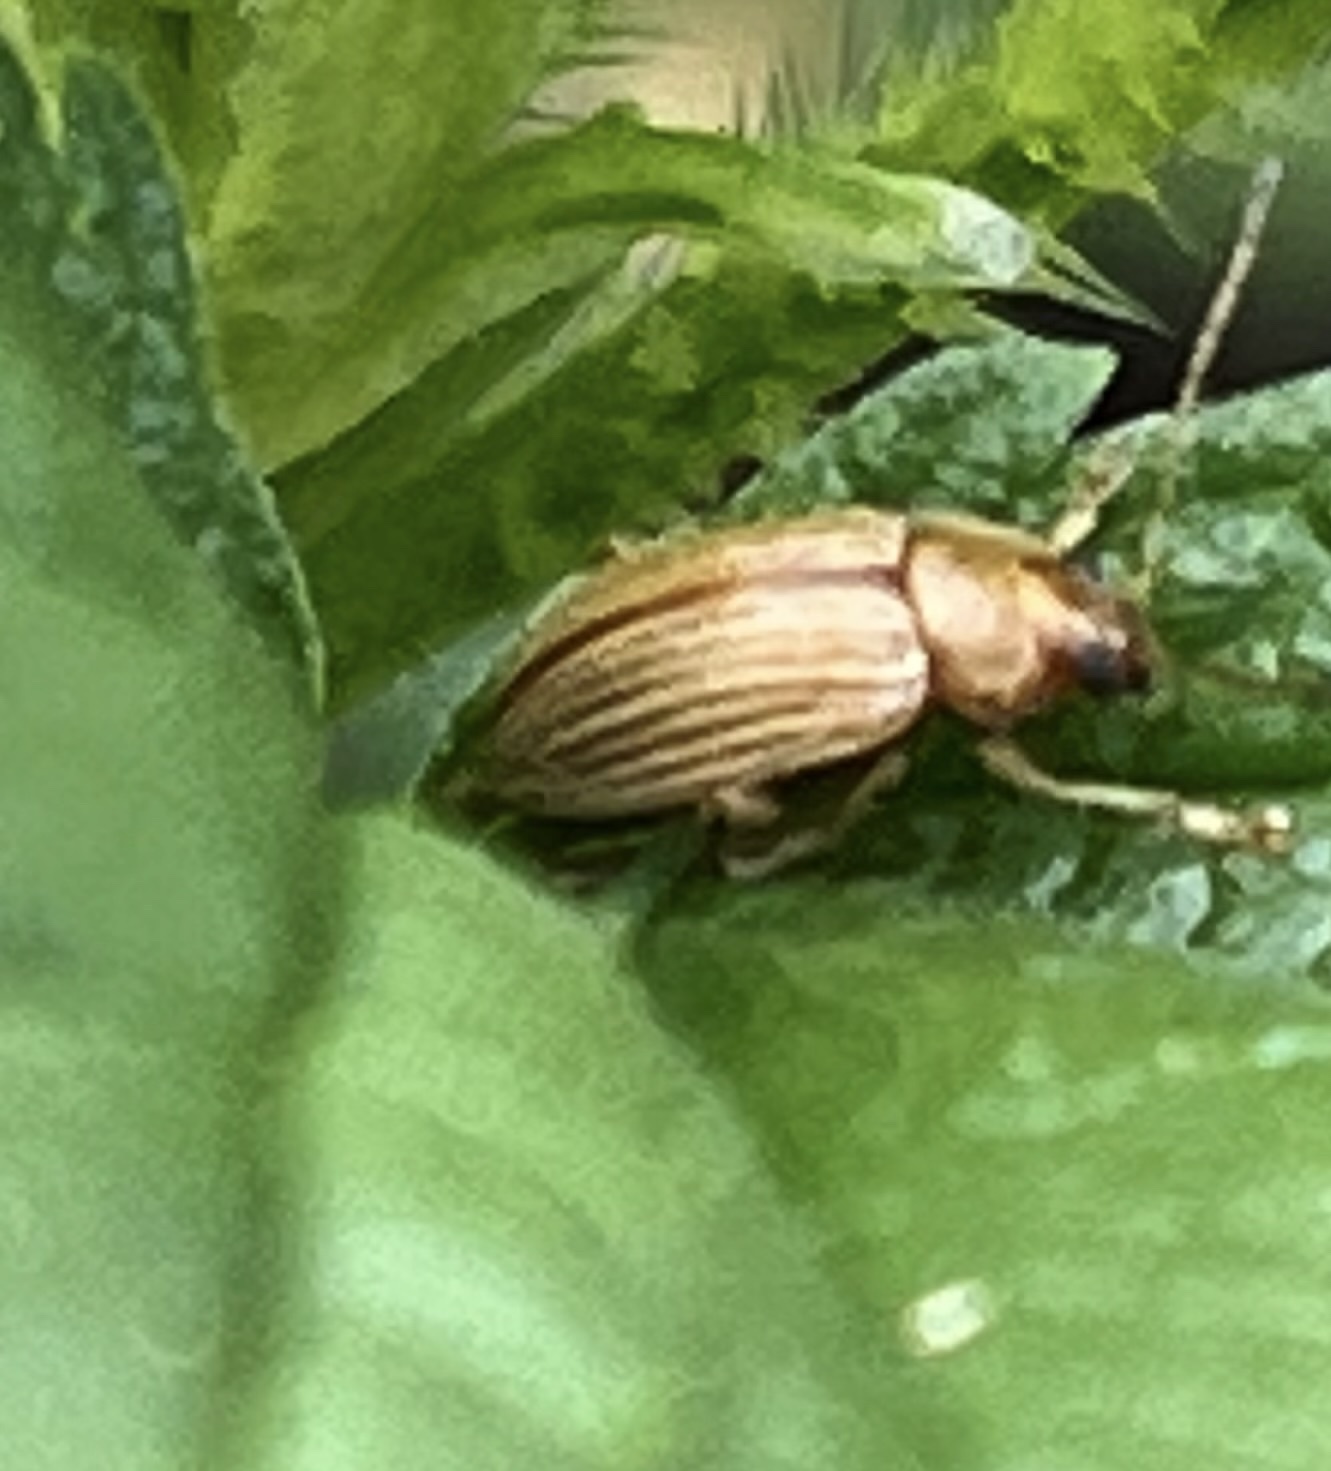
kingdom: Animalia
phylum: Arthropoda
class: Insecta
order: Coleoptera
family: Chrysomelidae
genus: Colaspis
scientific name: Colaspis brunnea
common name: Grape colaspis
